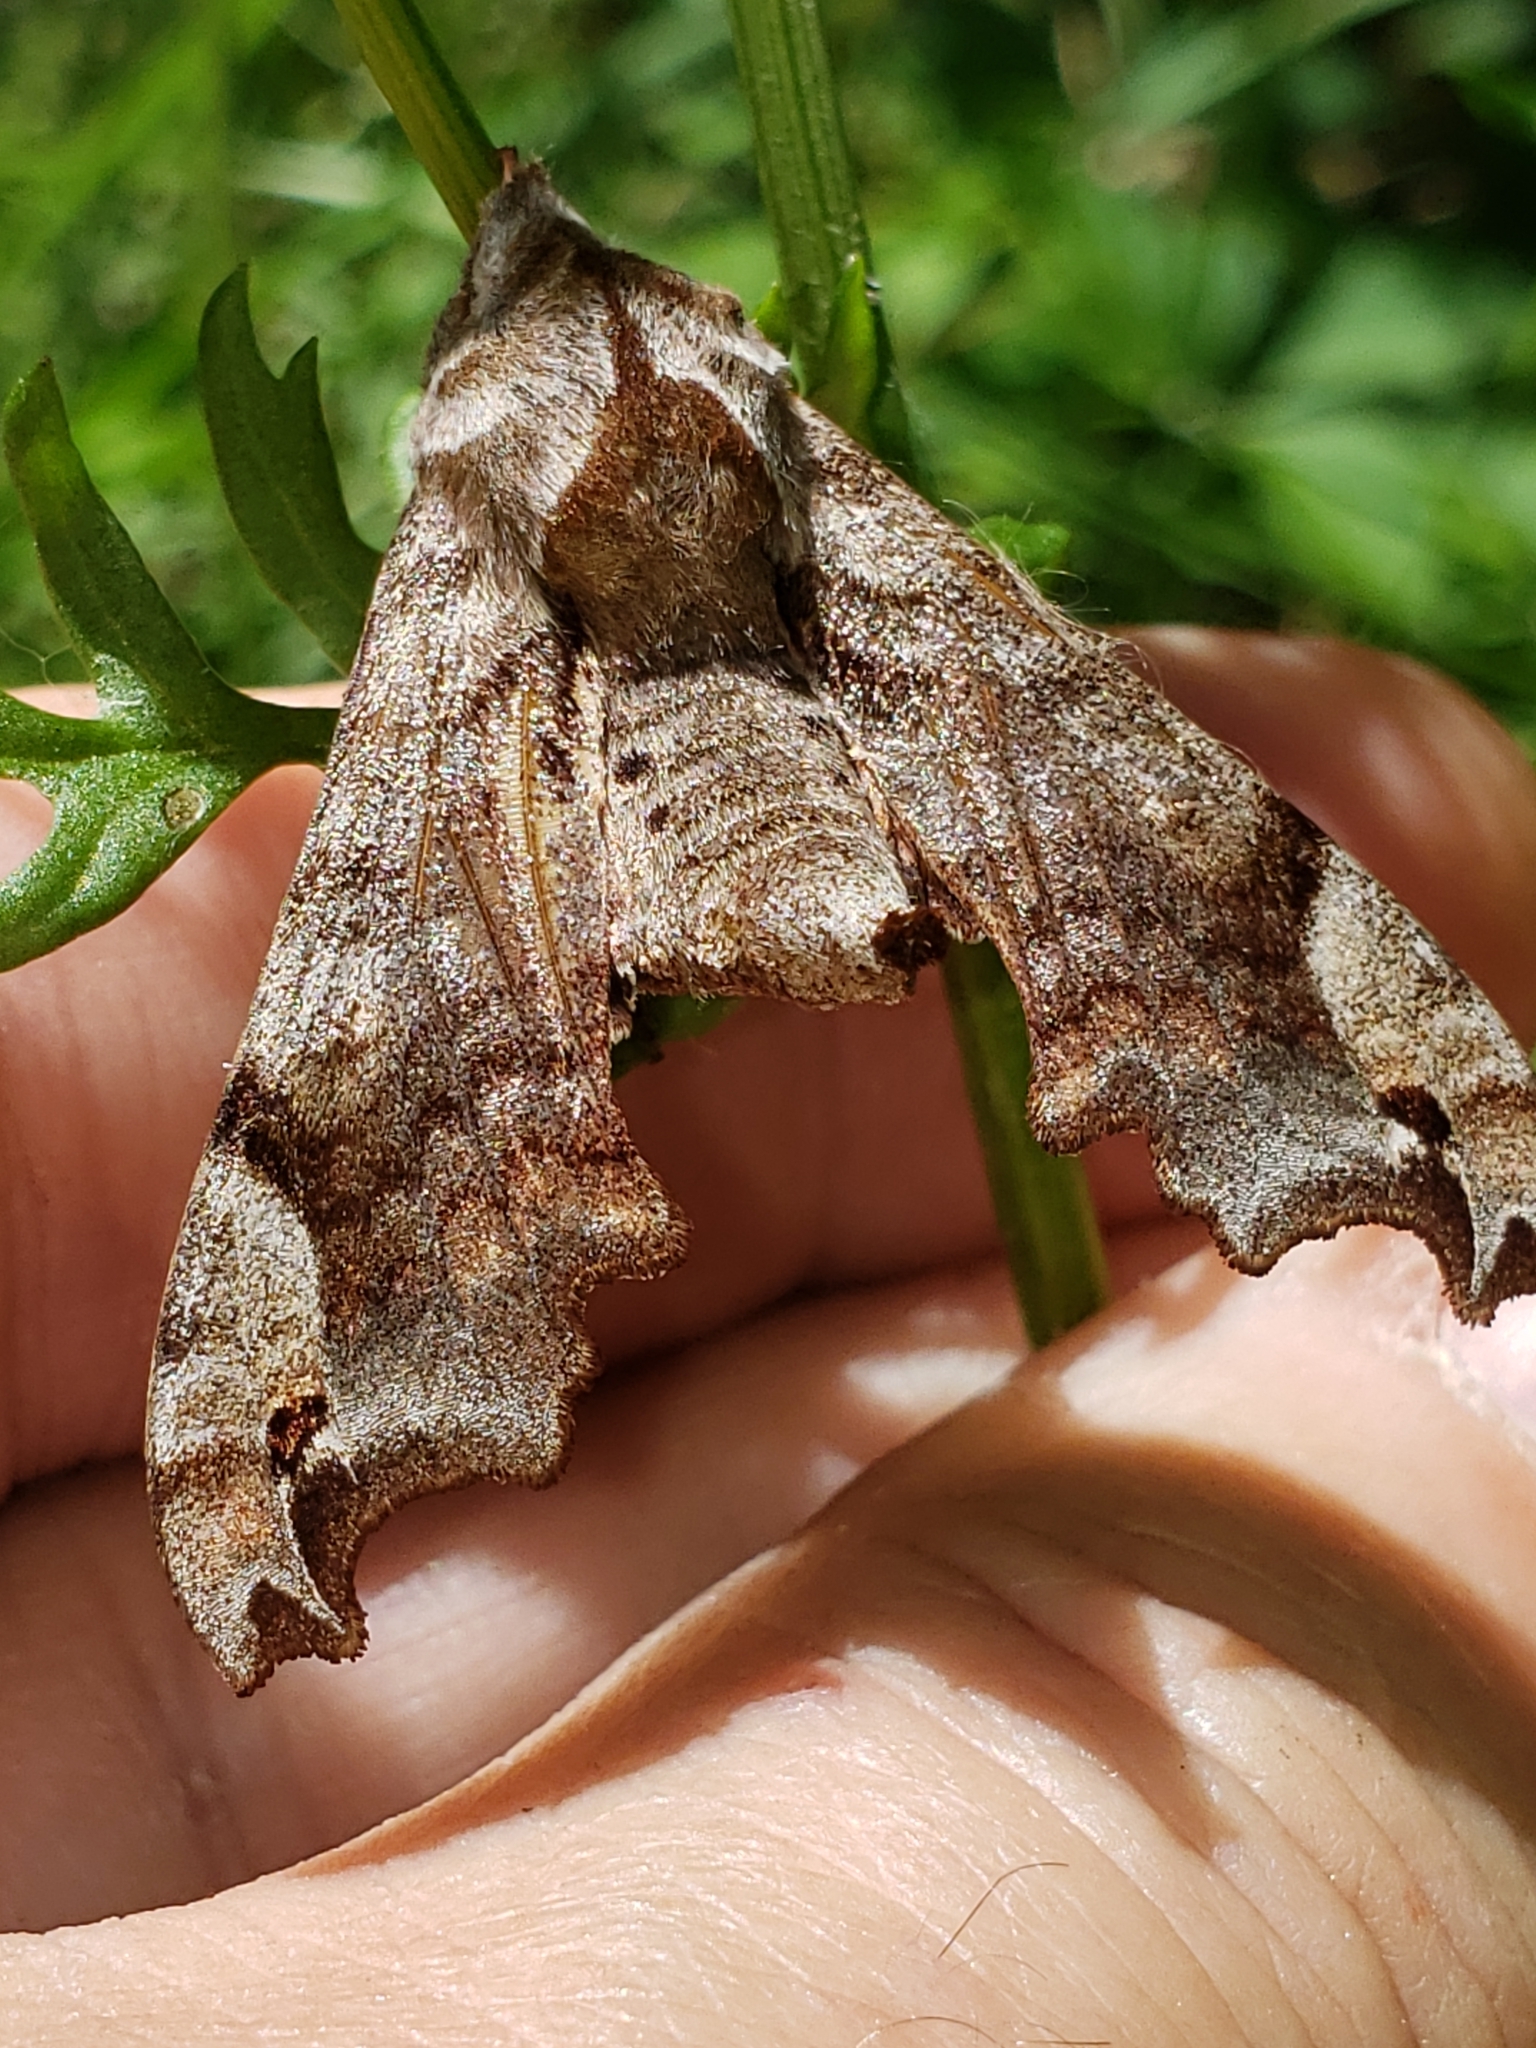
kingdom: Animalia
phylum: Arthropoda
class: Insecta
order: Lepidoptera
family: Sphingidae
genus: Deidamia
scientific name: Deidamia inscriptum
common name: Lettered sphinx
